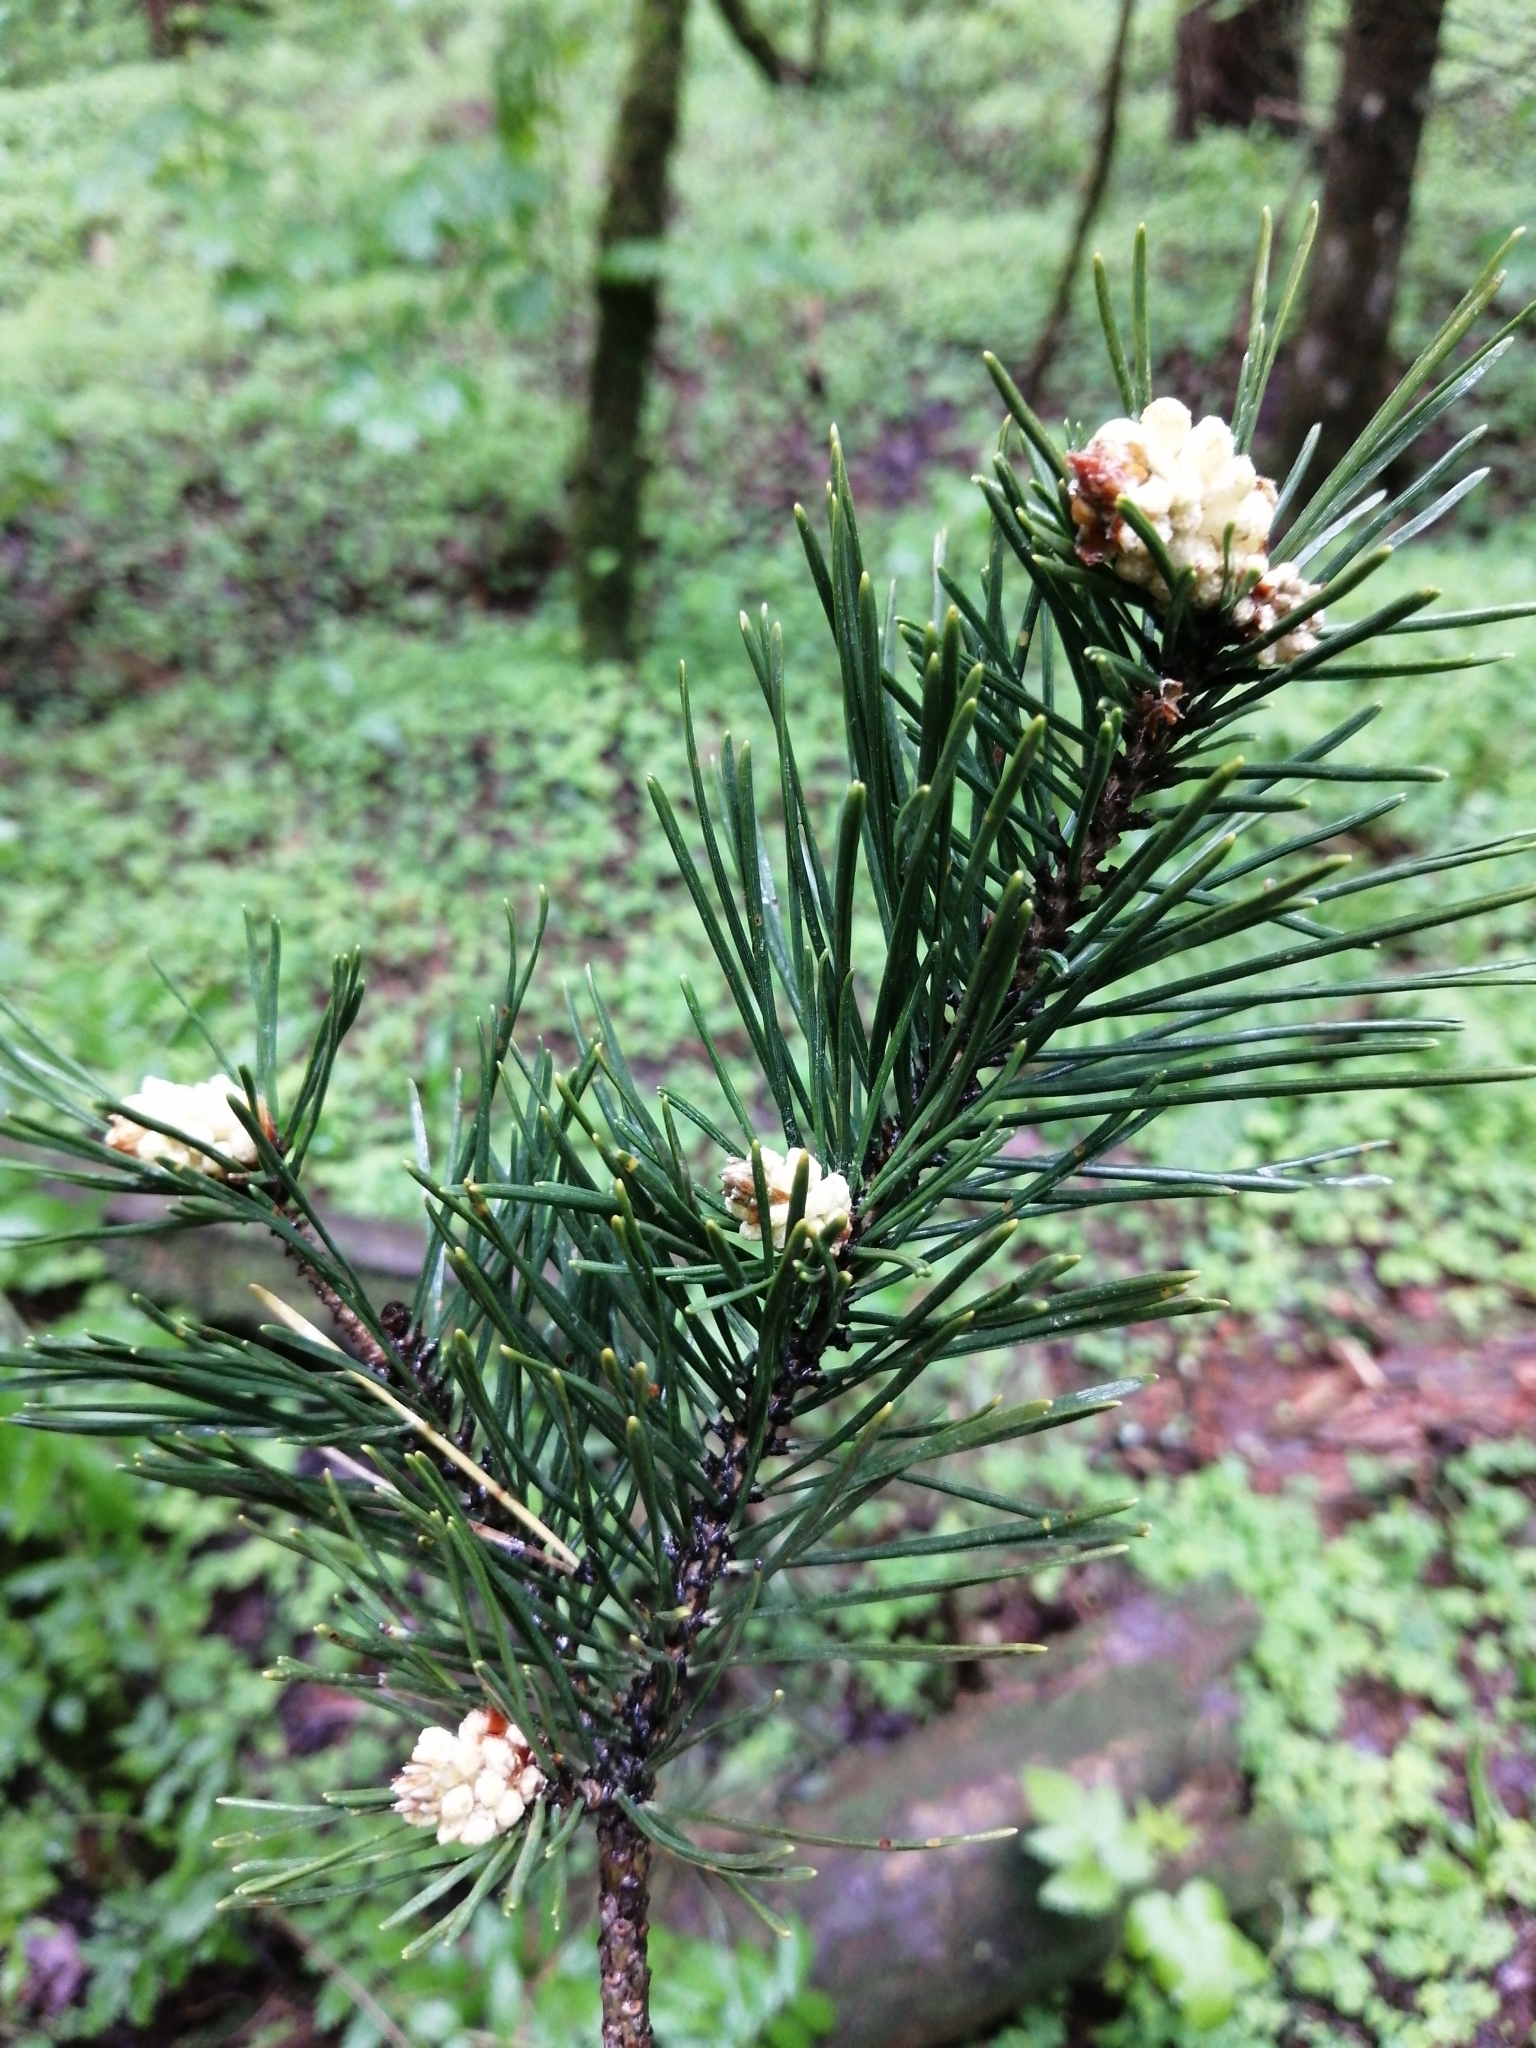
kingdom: Plantae
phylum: Tracheophyta
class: Pinopsida
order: Pinales
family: Pinaceae
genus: Pinus
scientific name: Pinus sylvestris
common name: Scots pine
